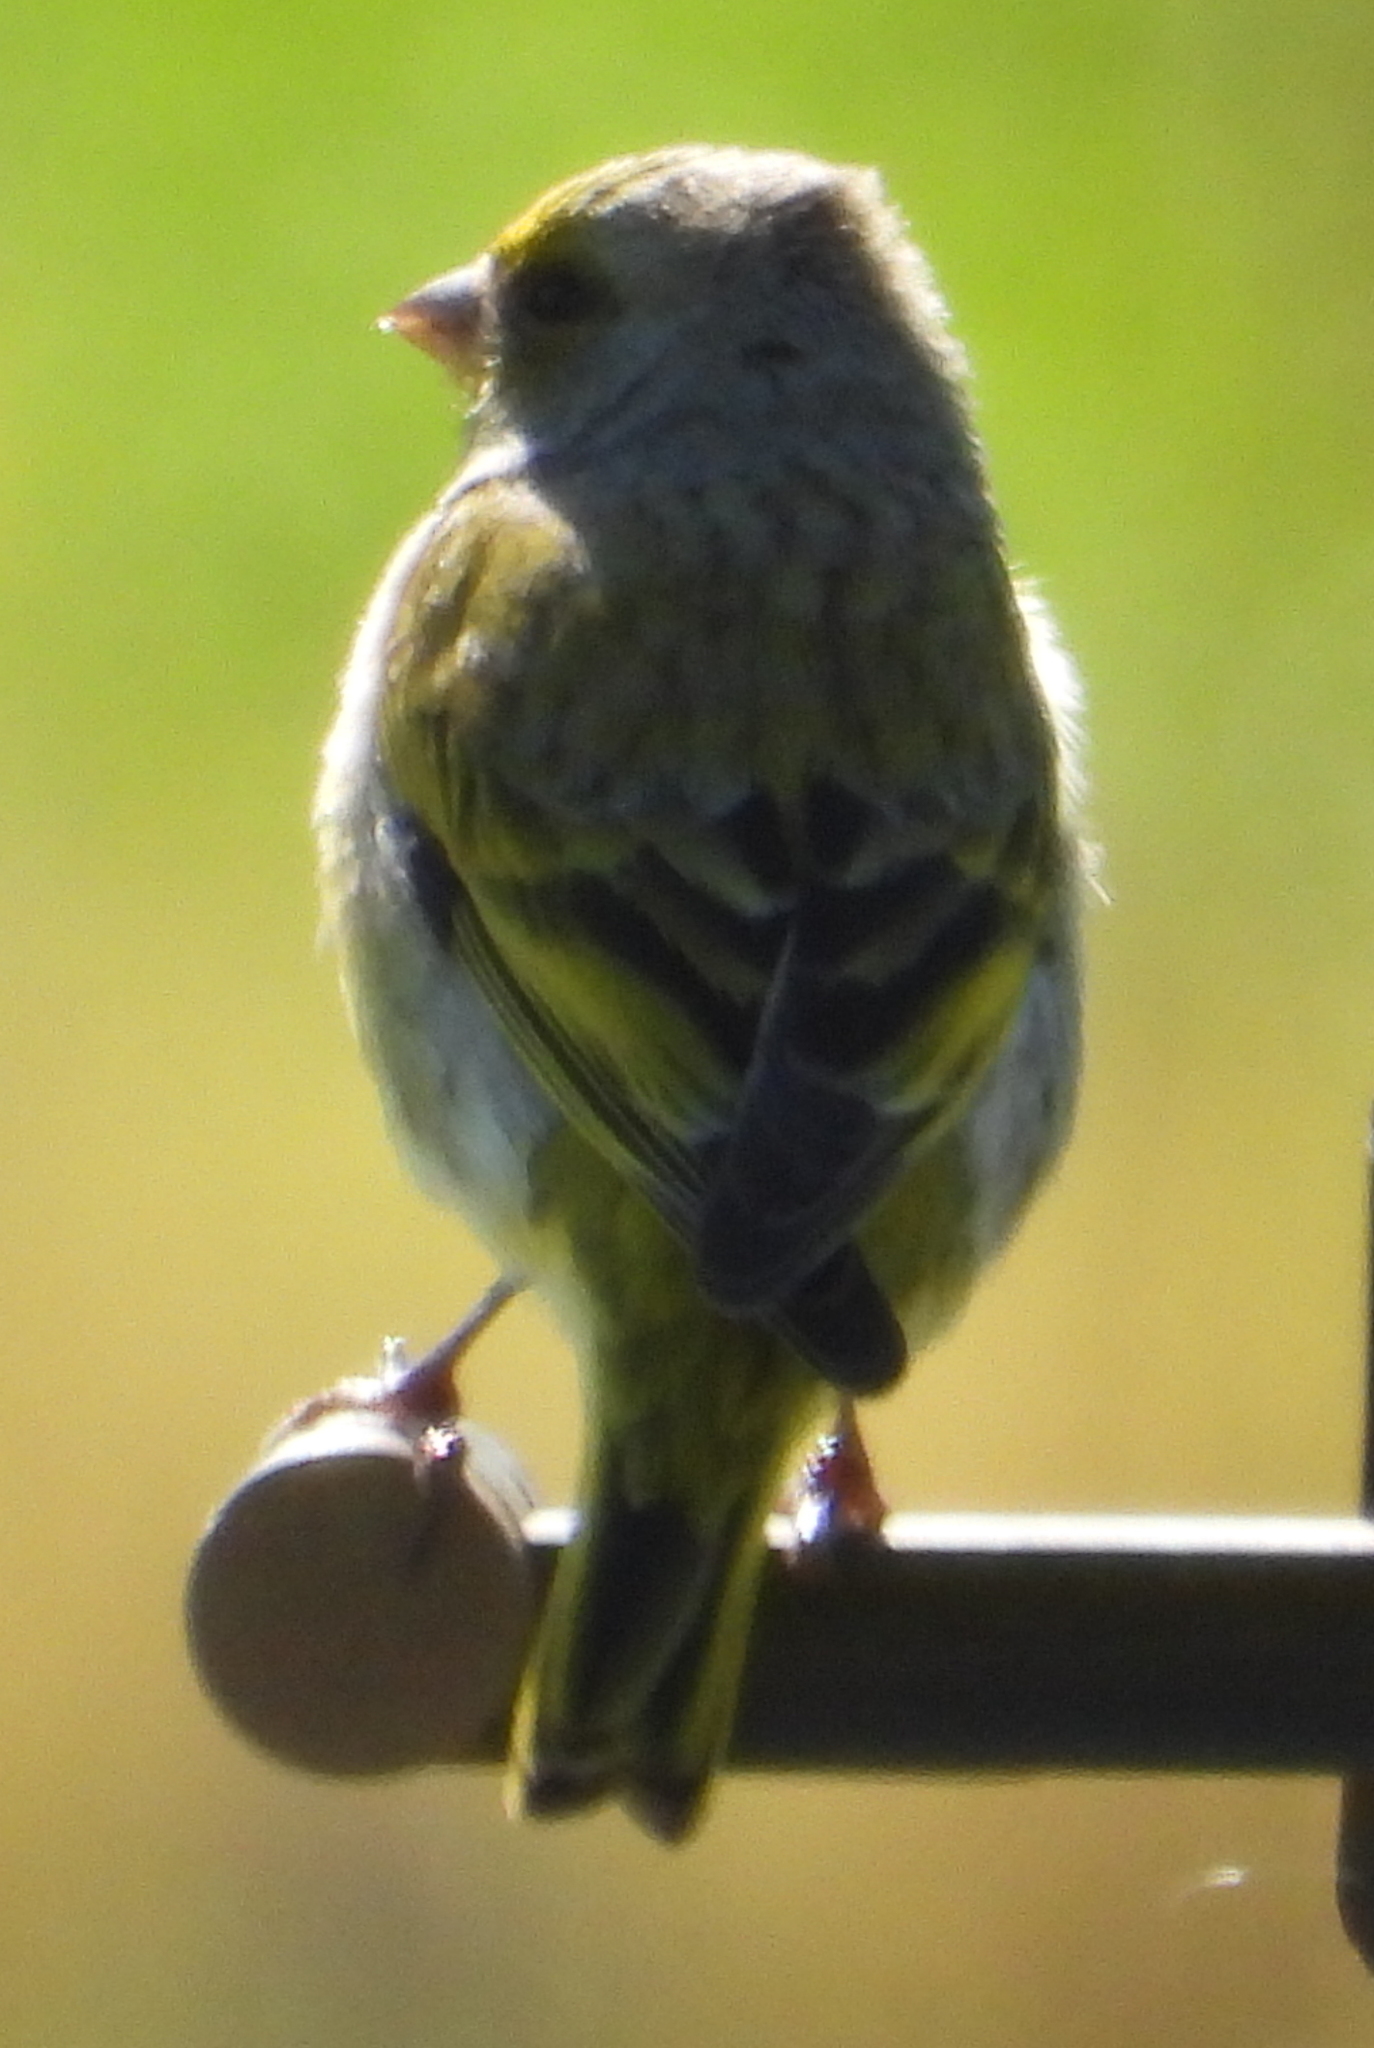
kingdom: Animalia
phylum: Chordata
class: Aves
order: Passeriformes
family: Fringillidae
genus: Serinus
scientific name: Serinus canicollis
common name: Cape canary
